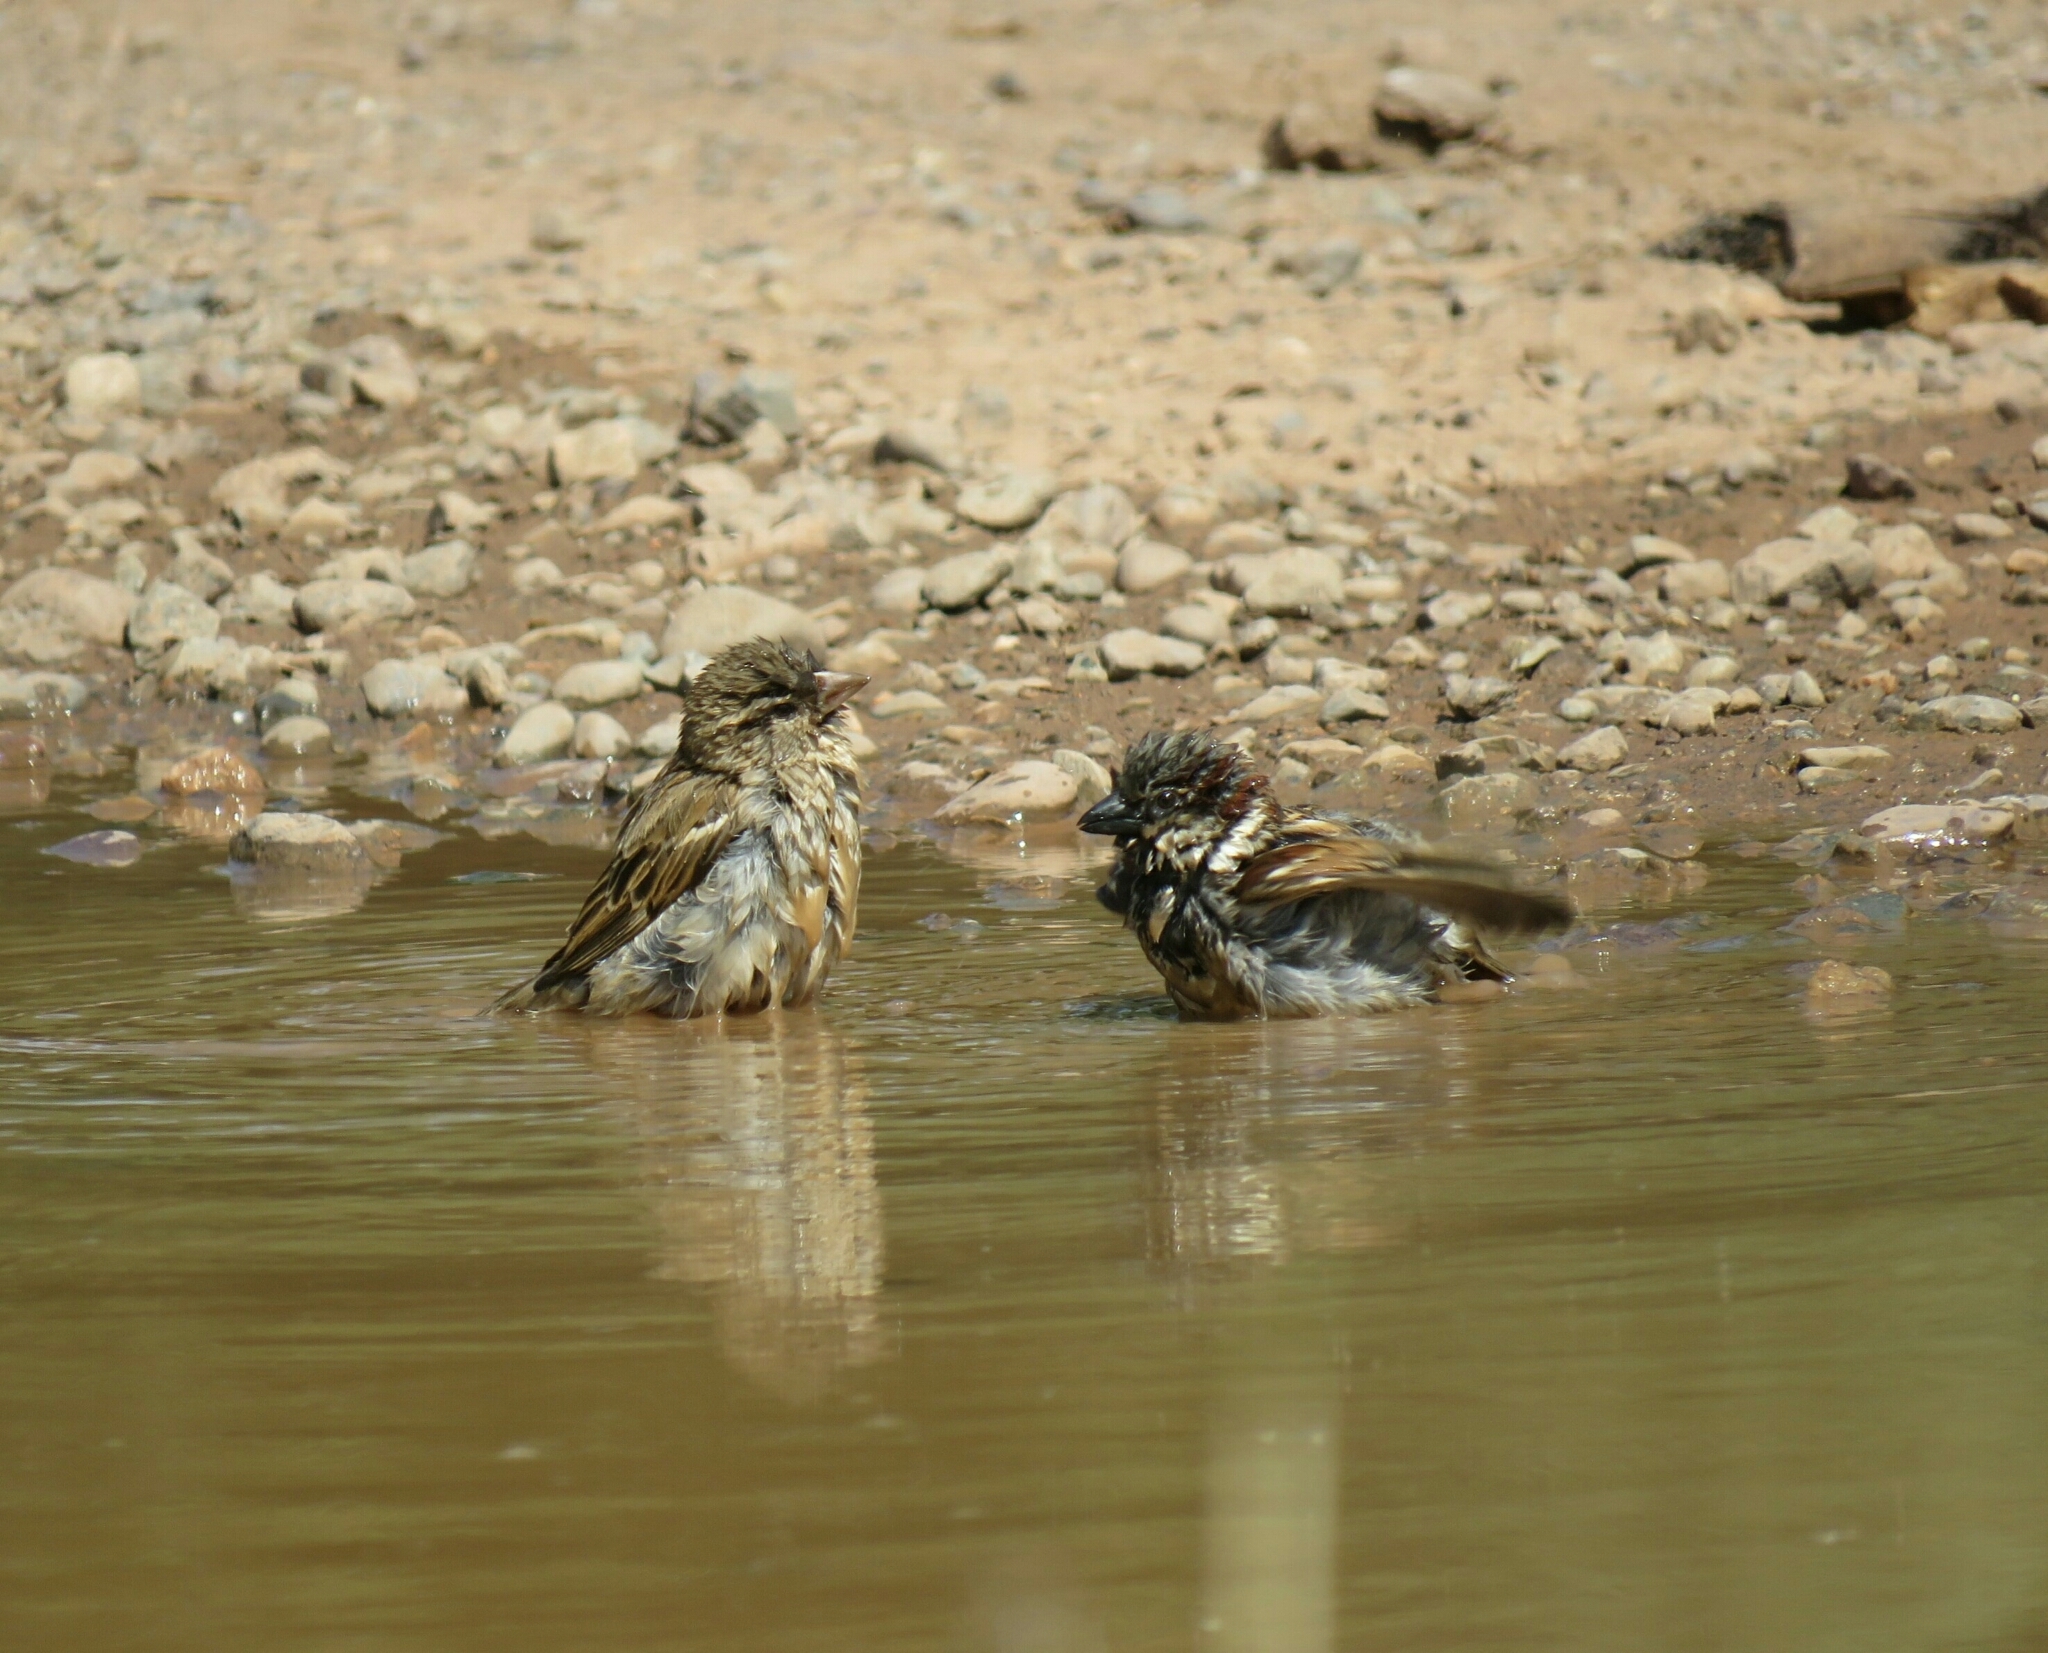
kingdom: Animalia
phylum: Chordata
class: Aves
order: Passeriformes
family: Passeridae
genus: Passer
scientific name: Passer domesticus
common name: House sparrow
